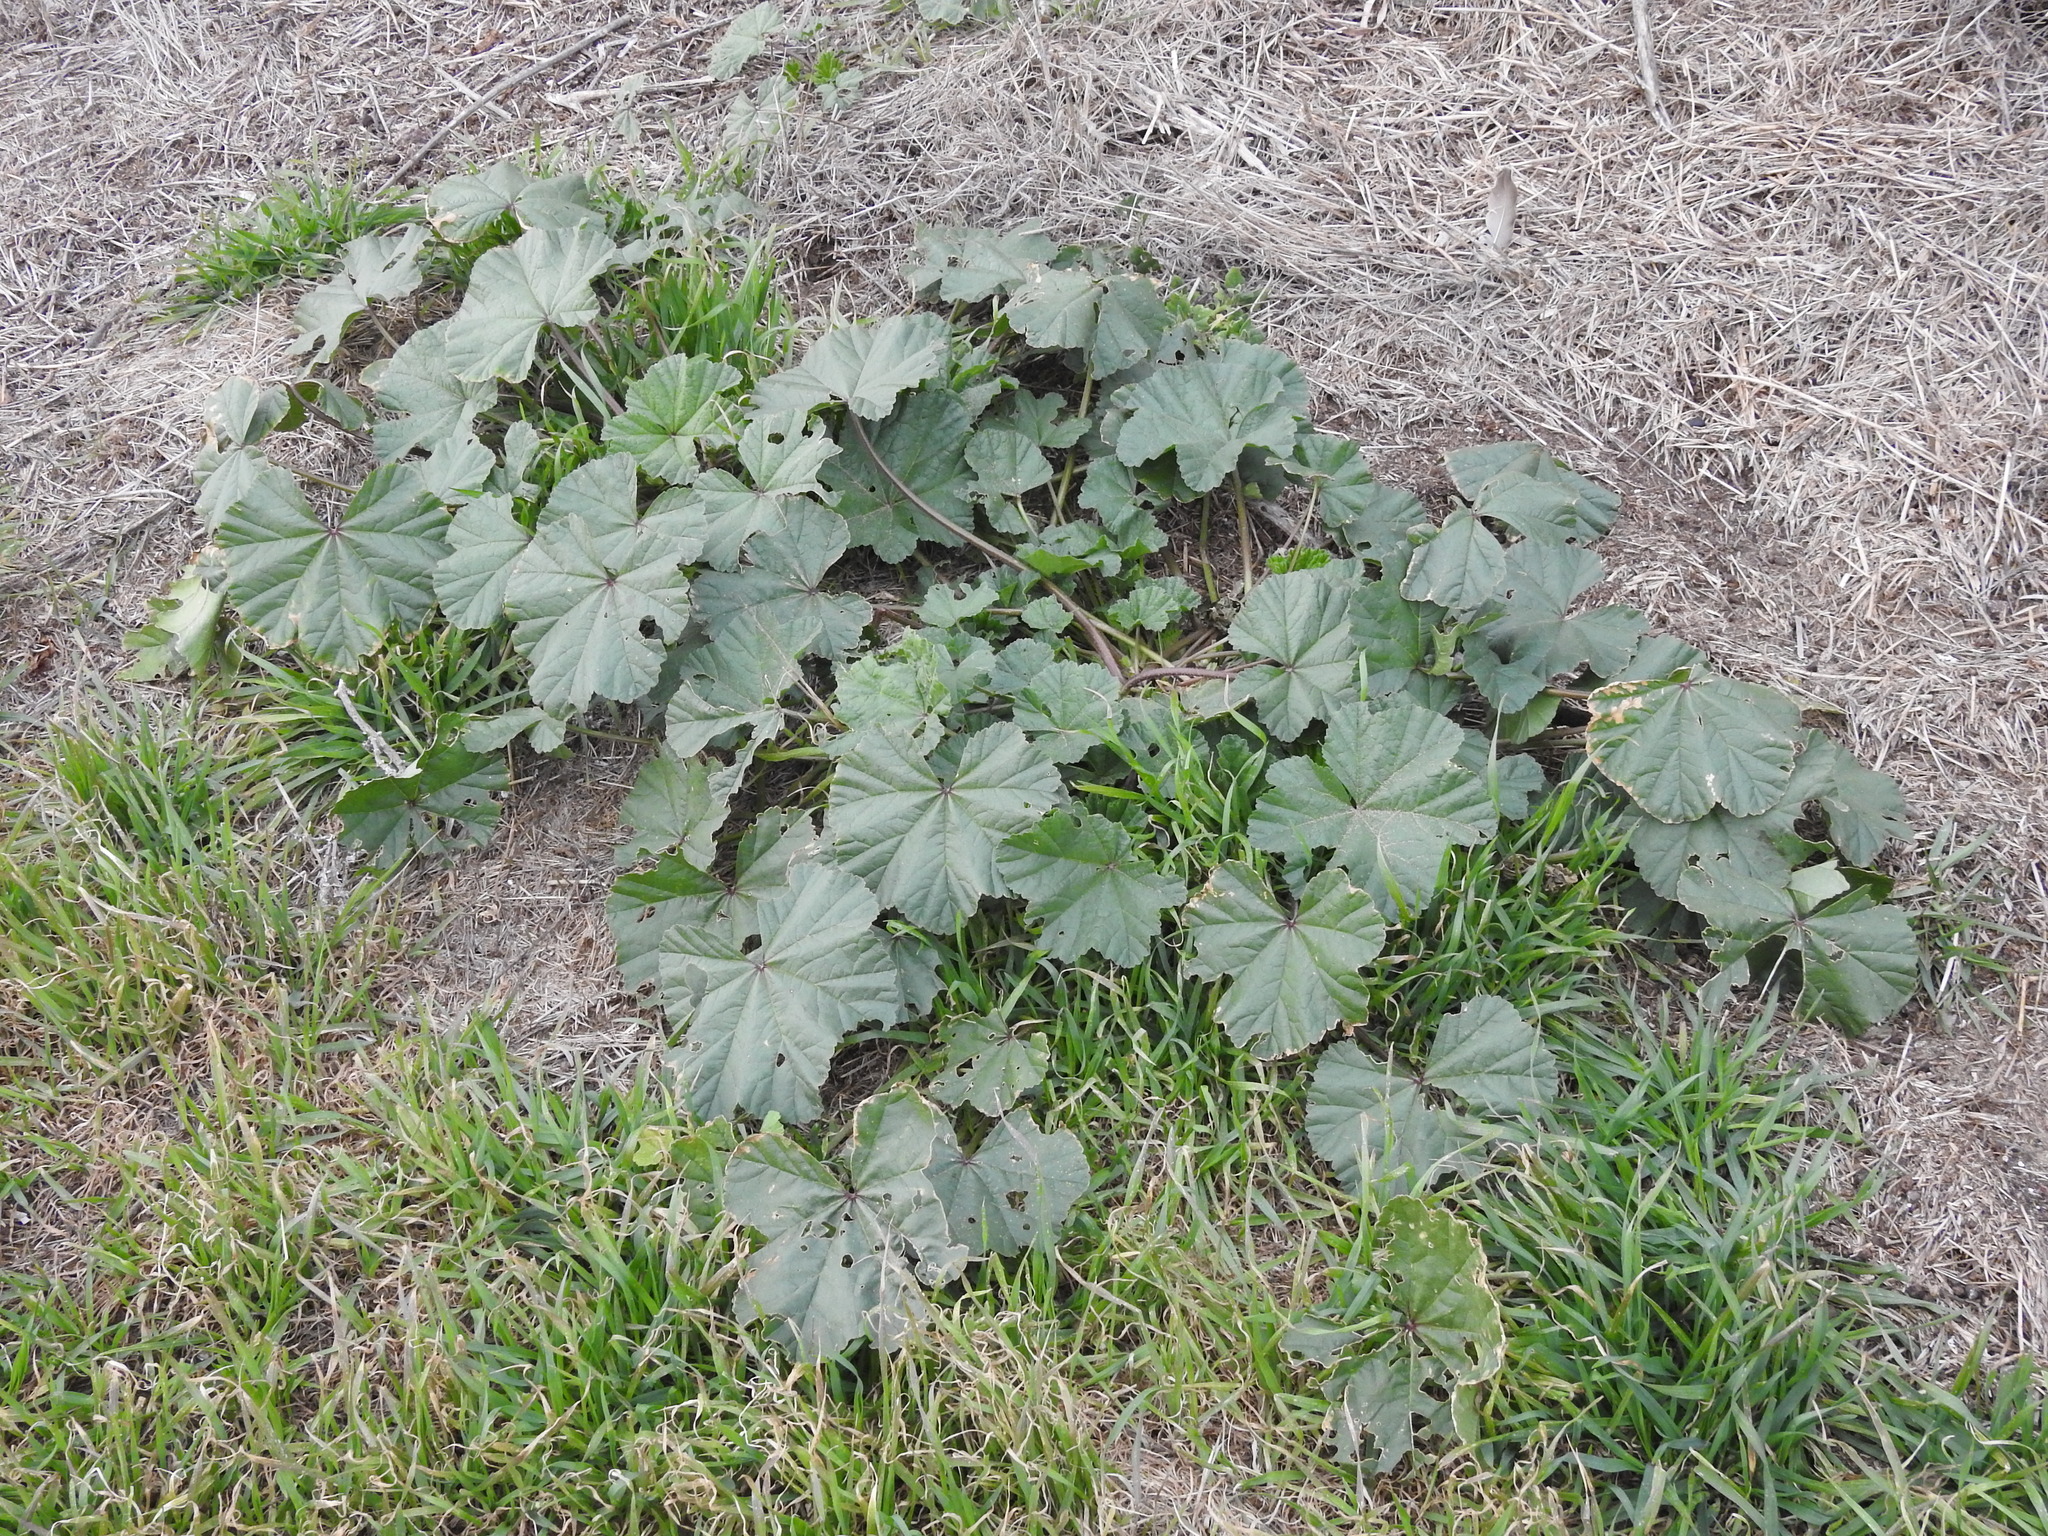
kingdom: Plantae
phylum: Tracheophyta
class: Magnoliopsida
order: Malvales
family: Malvaceae
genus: Malva
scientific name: Malva
